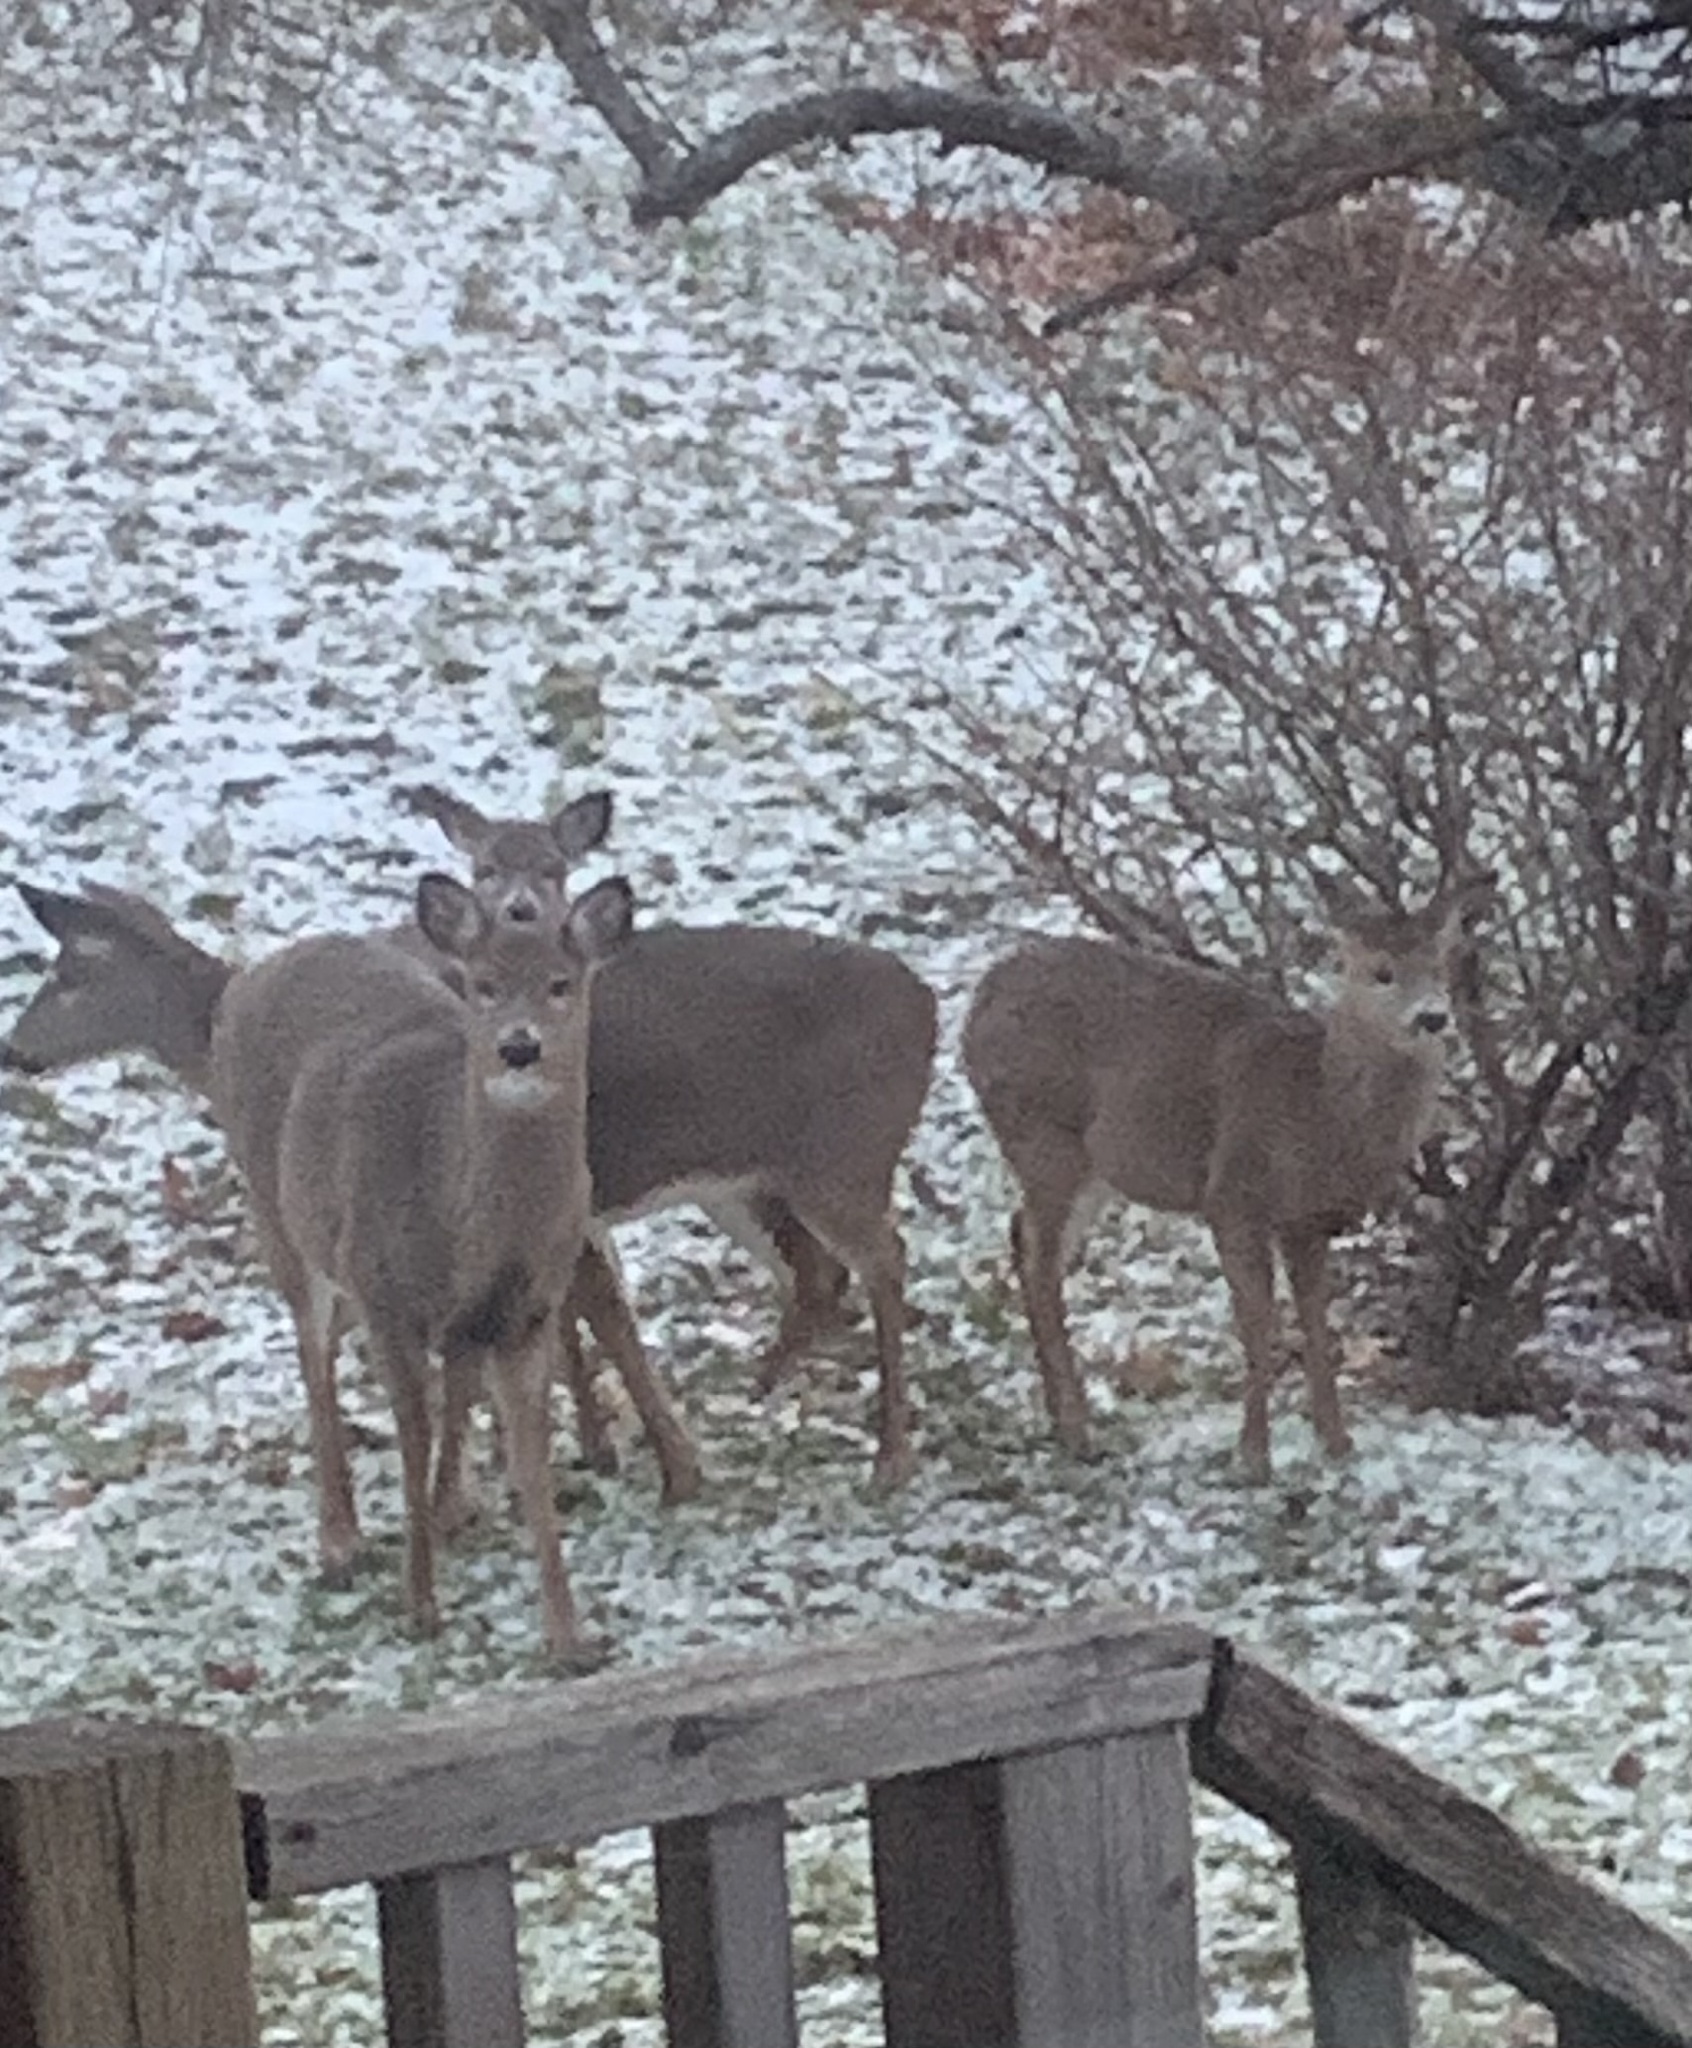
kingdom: Animalia
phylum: Chordata
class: Mammalia
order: Artiodactyla
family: Cervidae
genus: Odocoileus
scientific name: Odocoileus virginianus
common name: White-tailed deer
